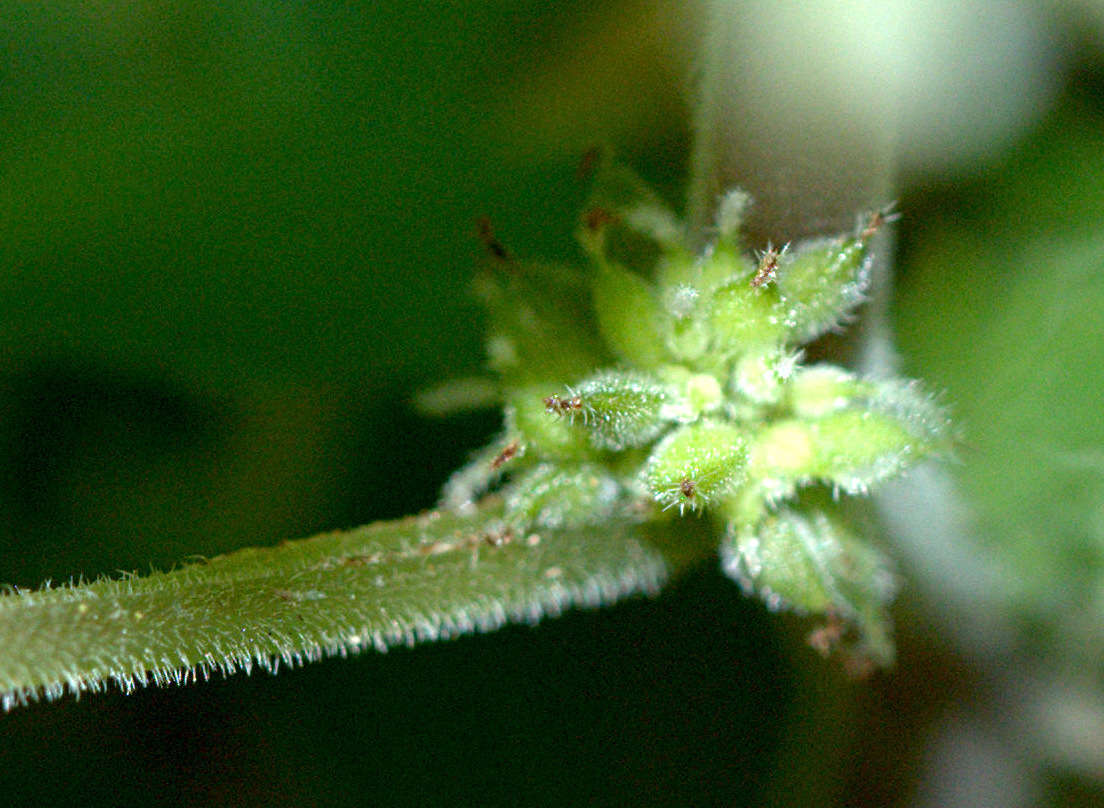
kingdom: Plantae
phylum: Tracheophyta
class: Magnoliopsida
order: Rosales
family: Urticaceae
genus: Australina
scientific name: Australina pusilla
